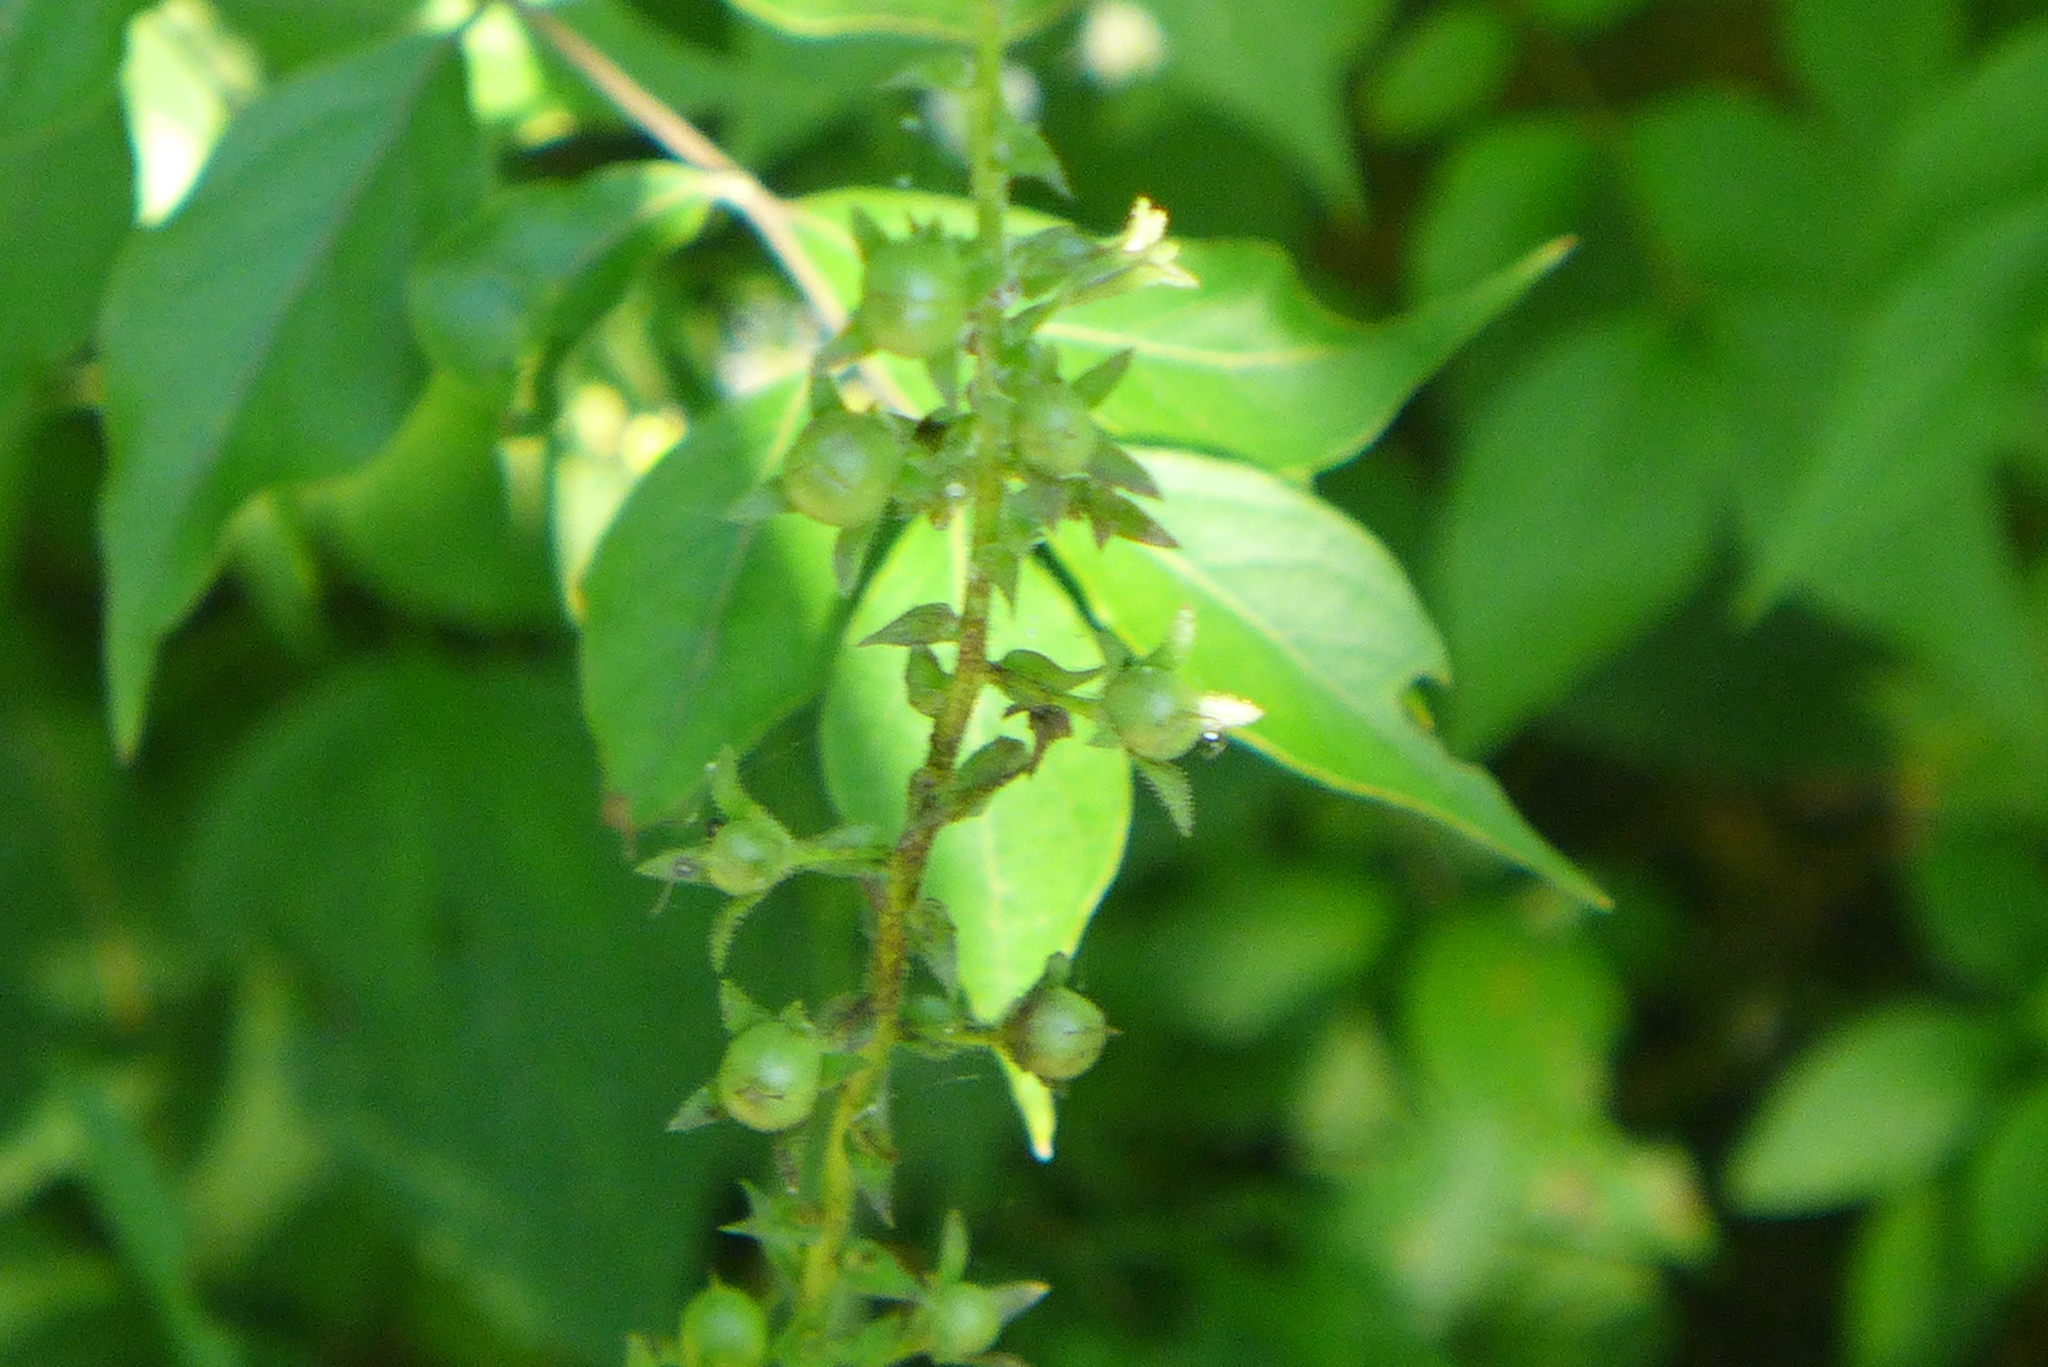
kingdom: Plantae
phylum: Tracheophyta
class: Magnoliopsida
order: Lamiales
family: Scrophulariaceae
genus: Verbascum
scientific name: Verbascum blattaria
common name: Moth mullein
